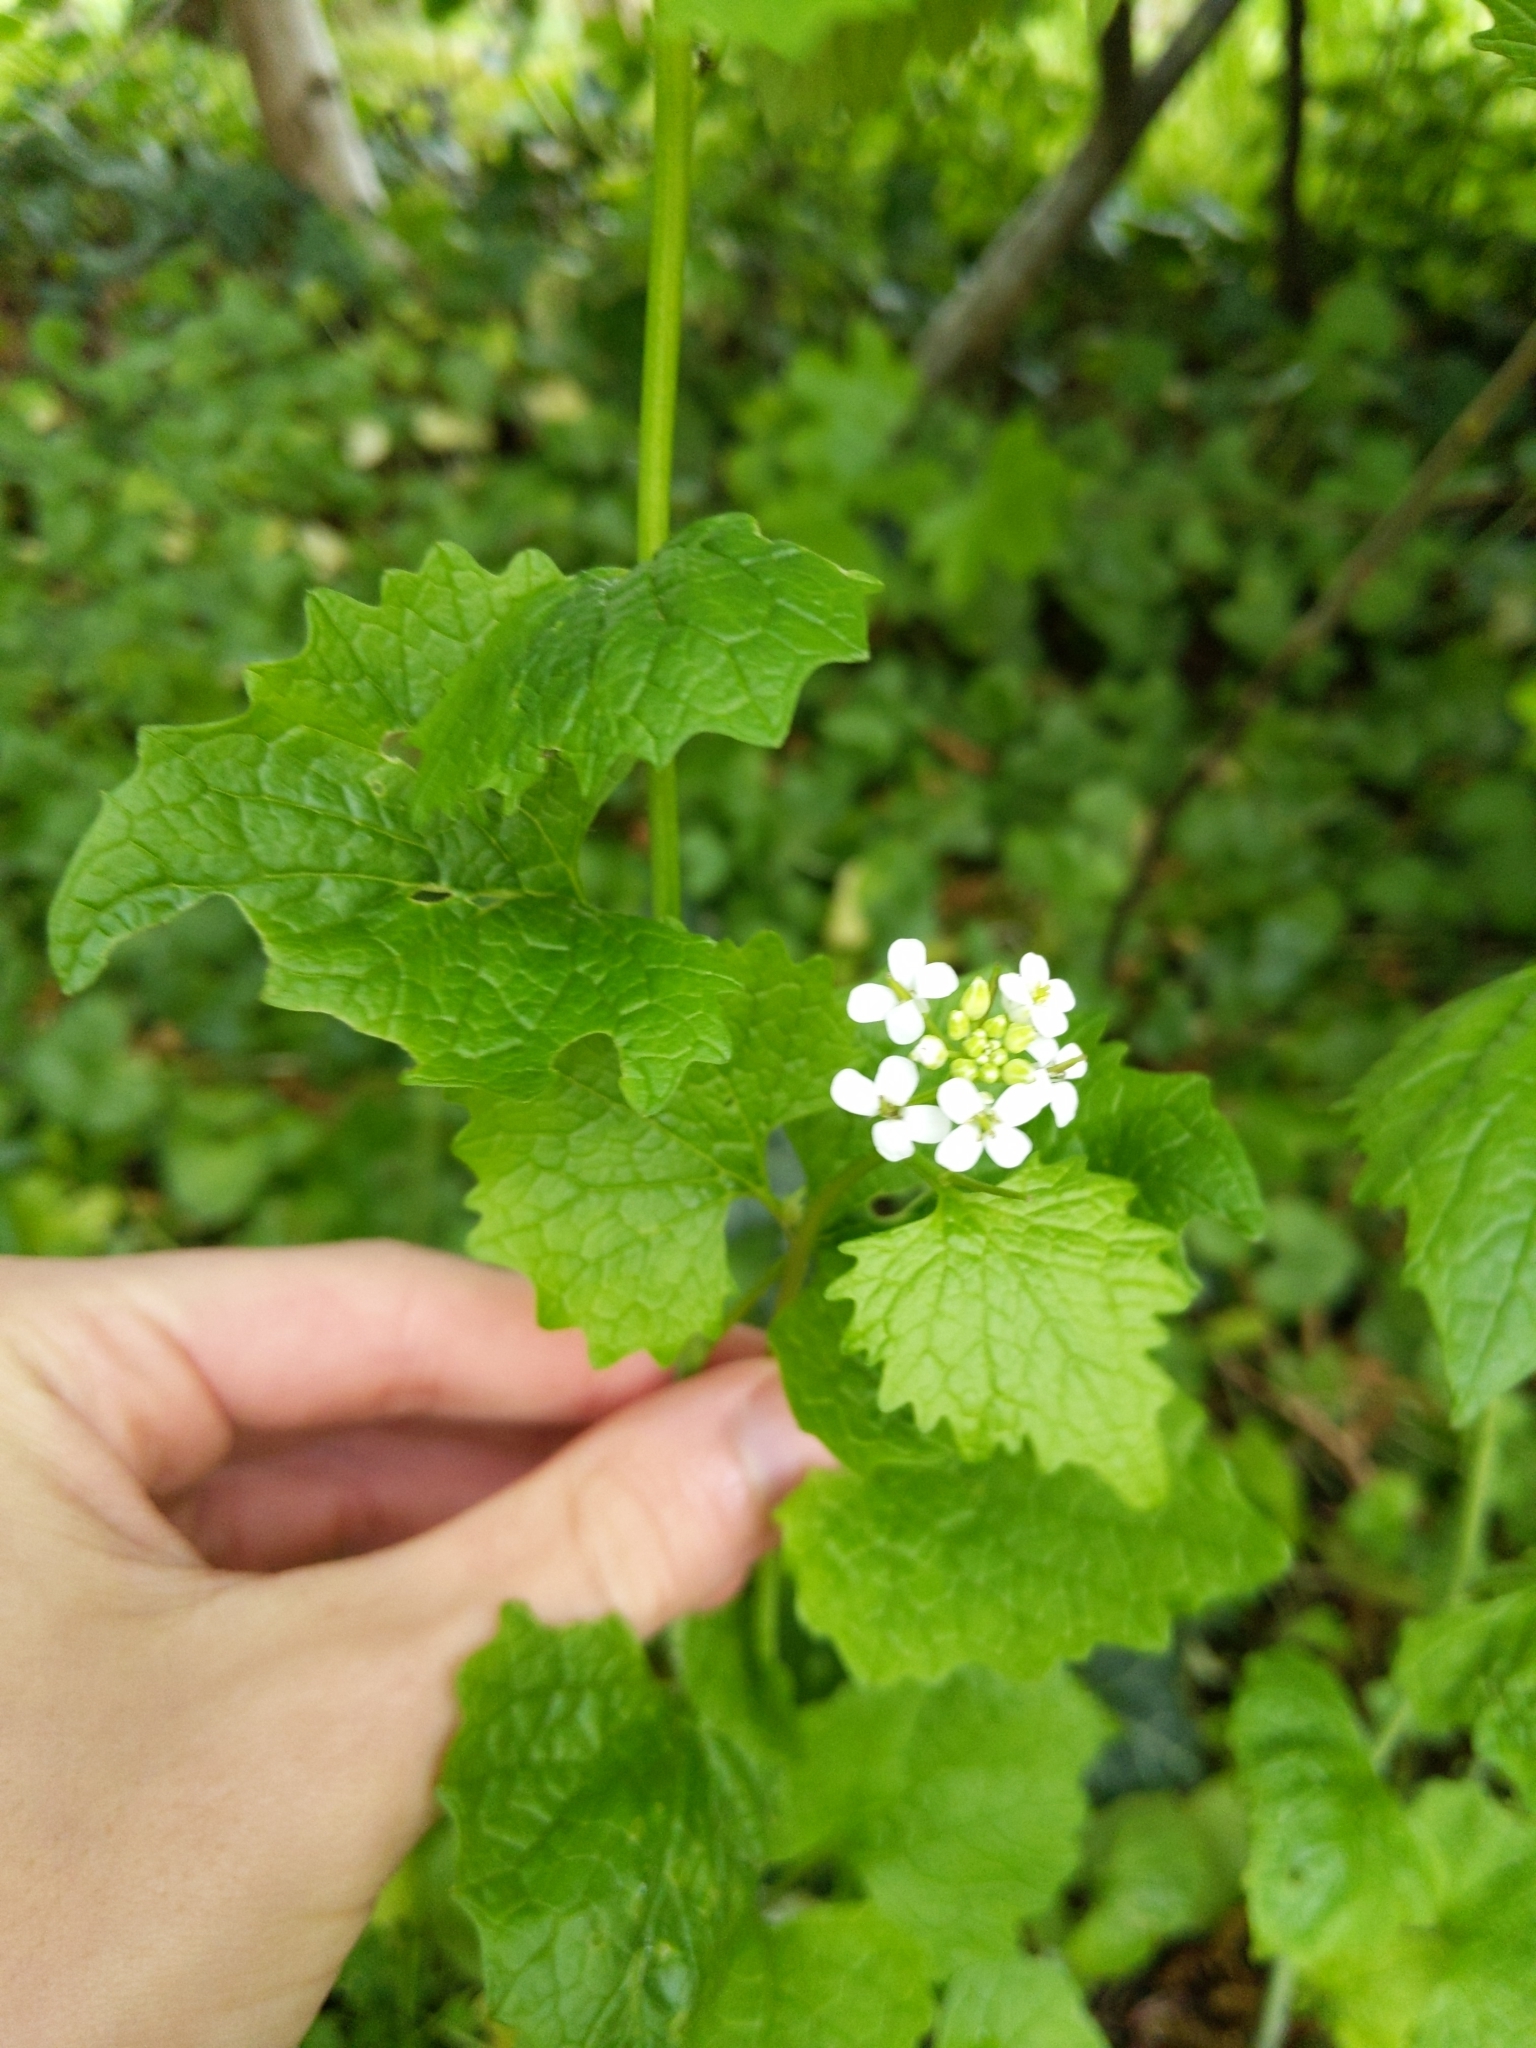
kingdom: Plantae
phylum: Tracheophyta
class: Magnoliopsida
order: Brassicales
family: Brassicaceae
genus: Alliaria
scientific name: Alliaria petiolata
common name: Garlic mustard
